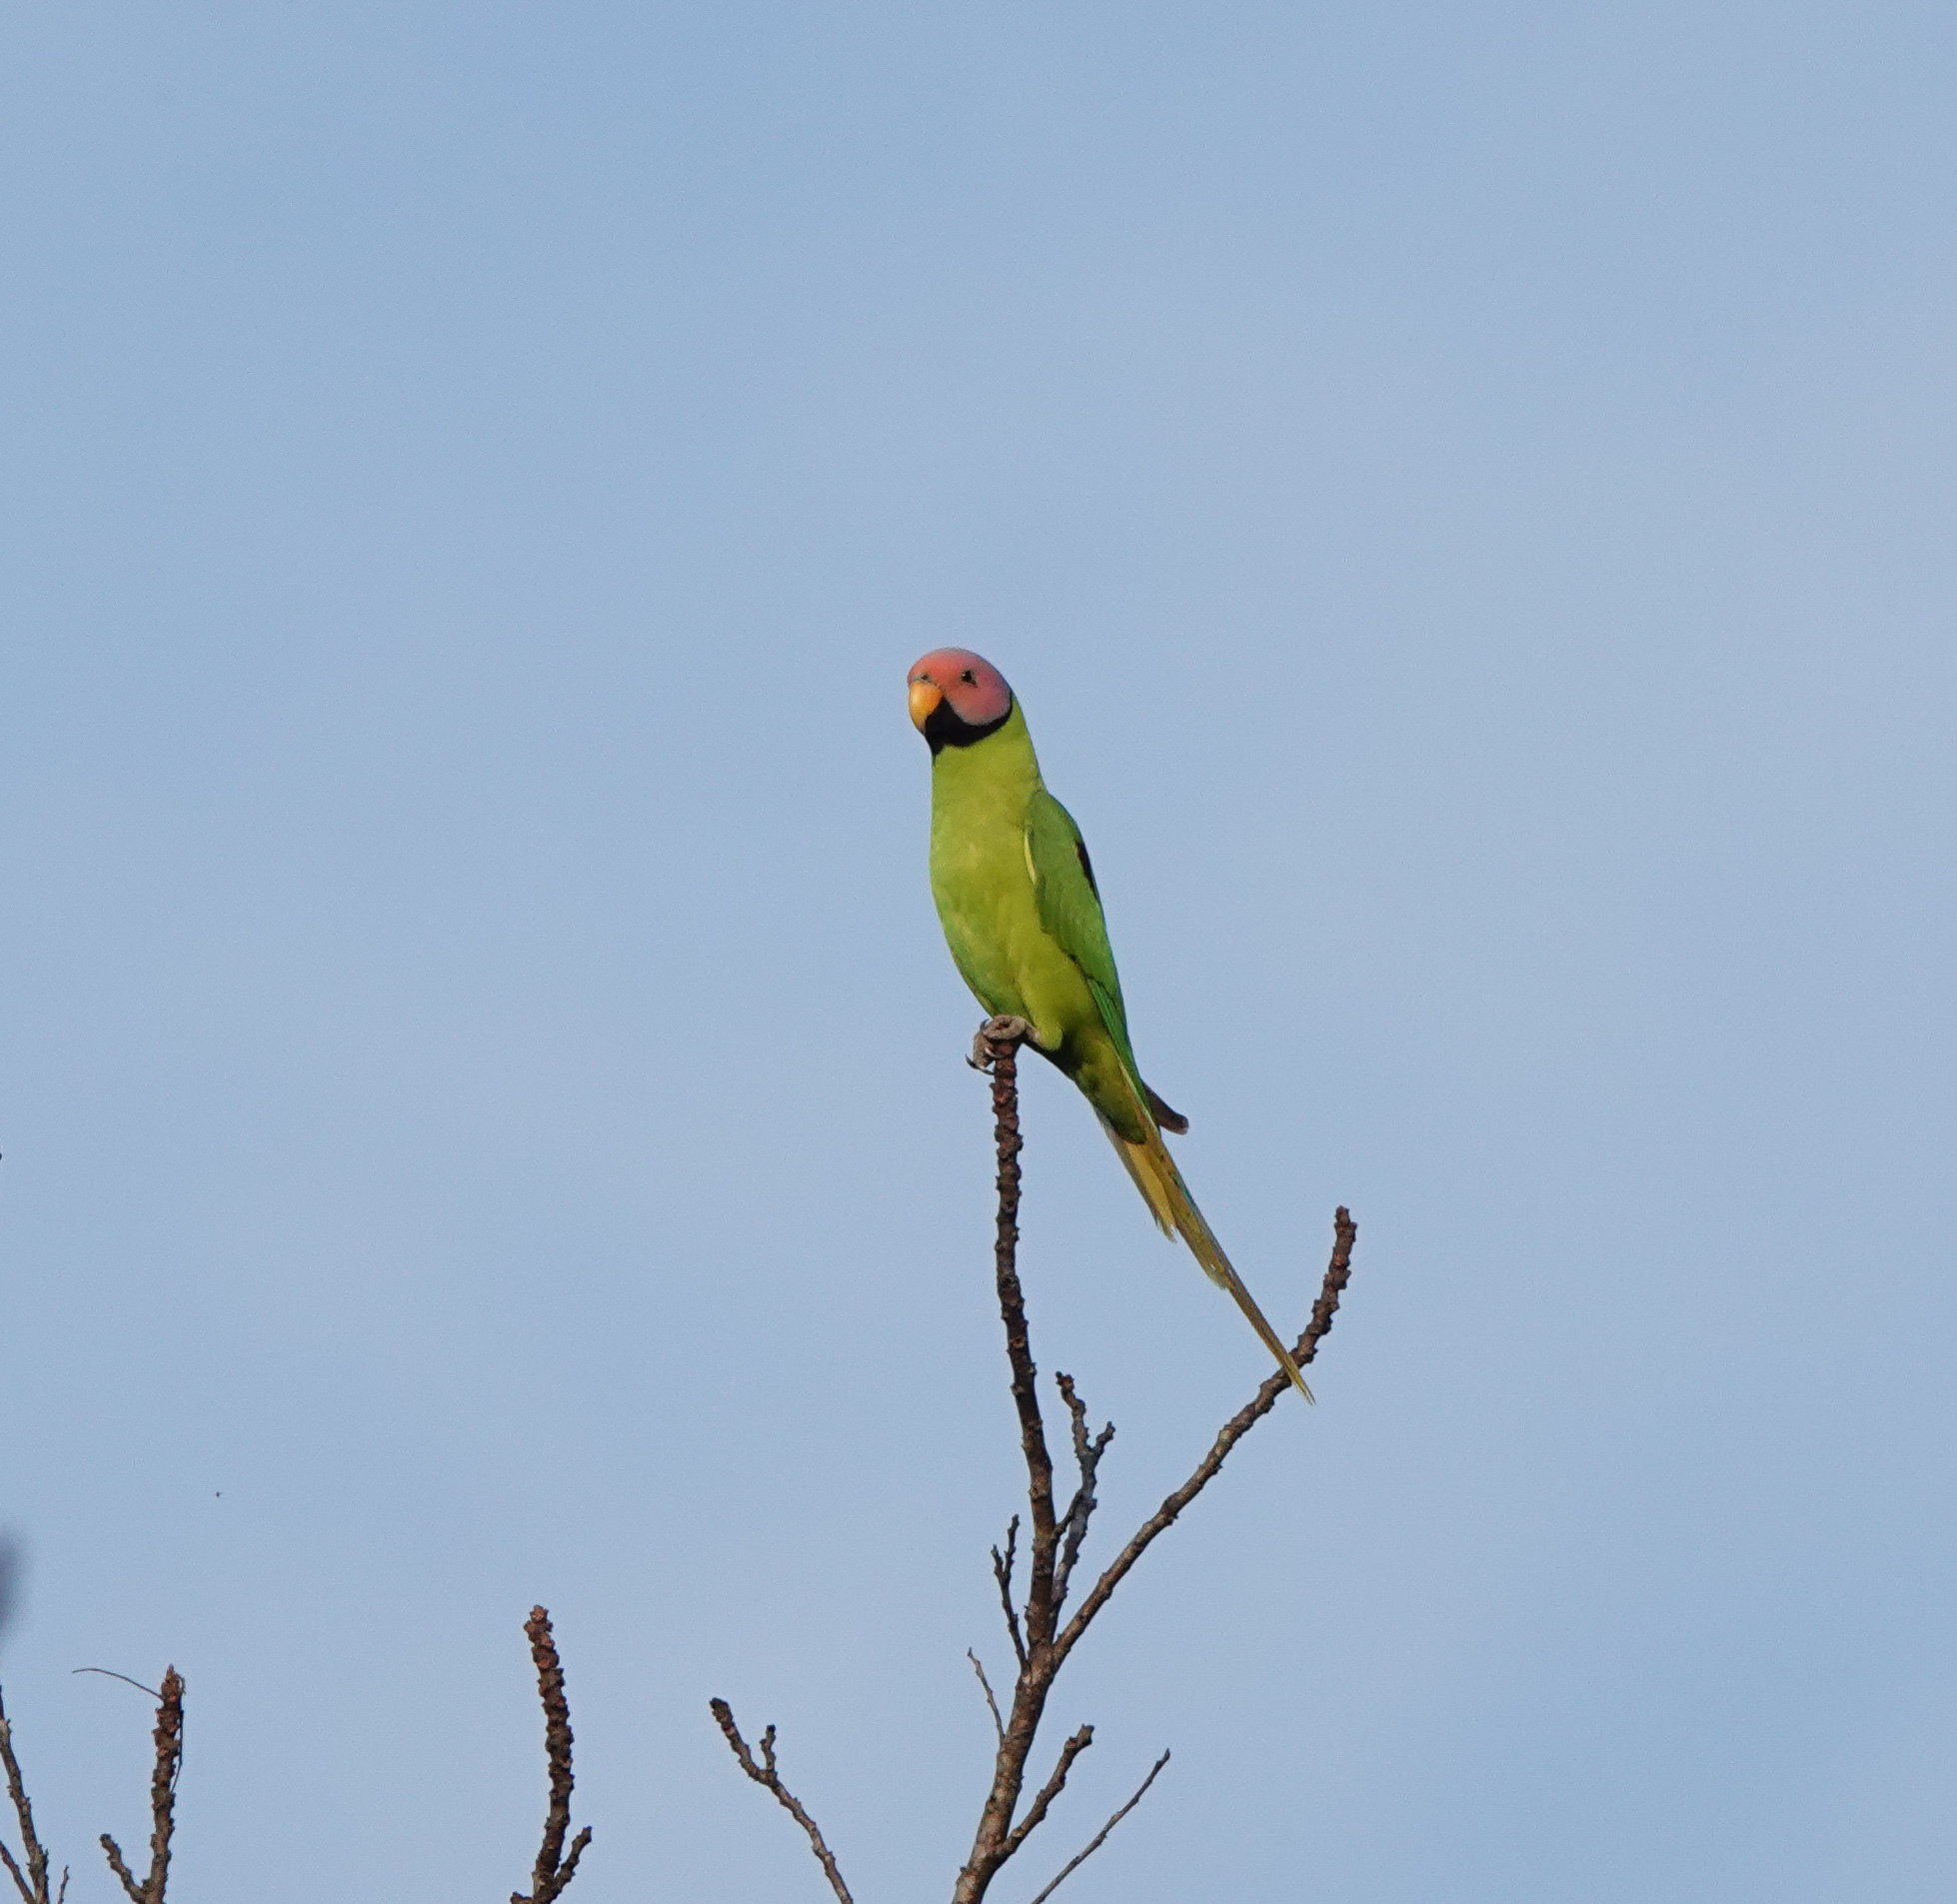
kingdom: Animalia
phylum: Chordata
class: Aves
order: Psittaciformes
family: Psittacidae
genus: Psittacula
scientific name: Psittacula roseata
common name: Blossom-headed parakeet
